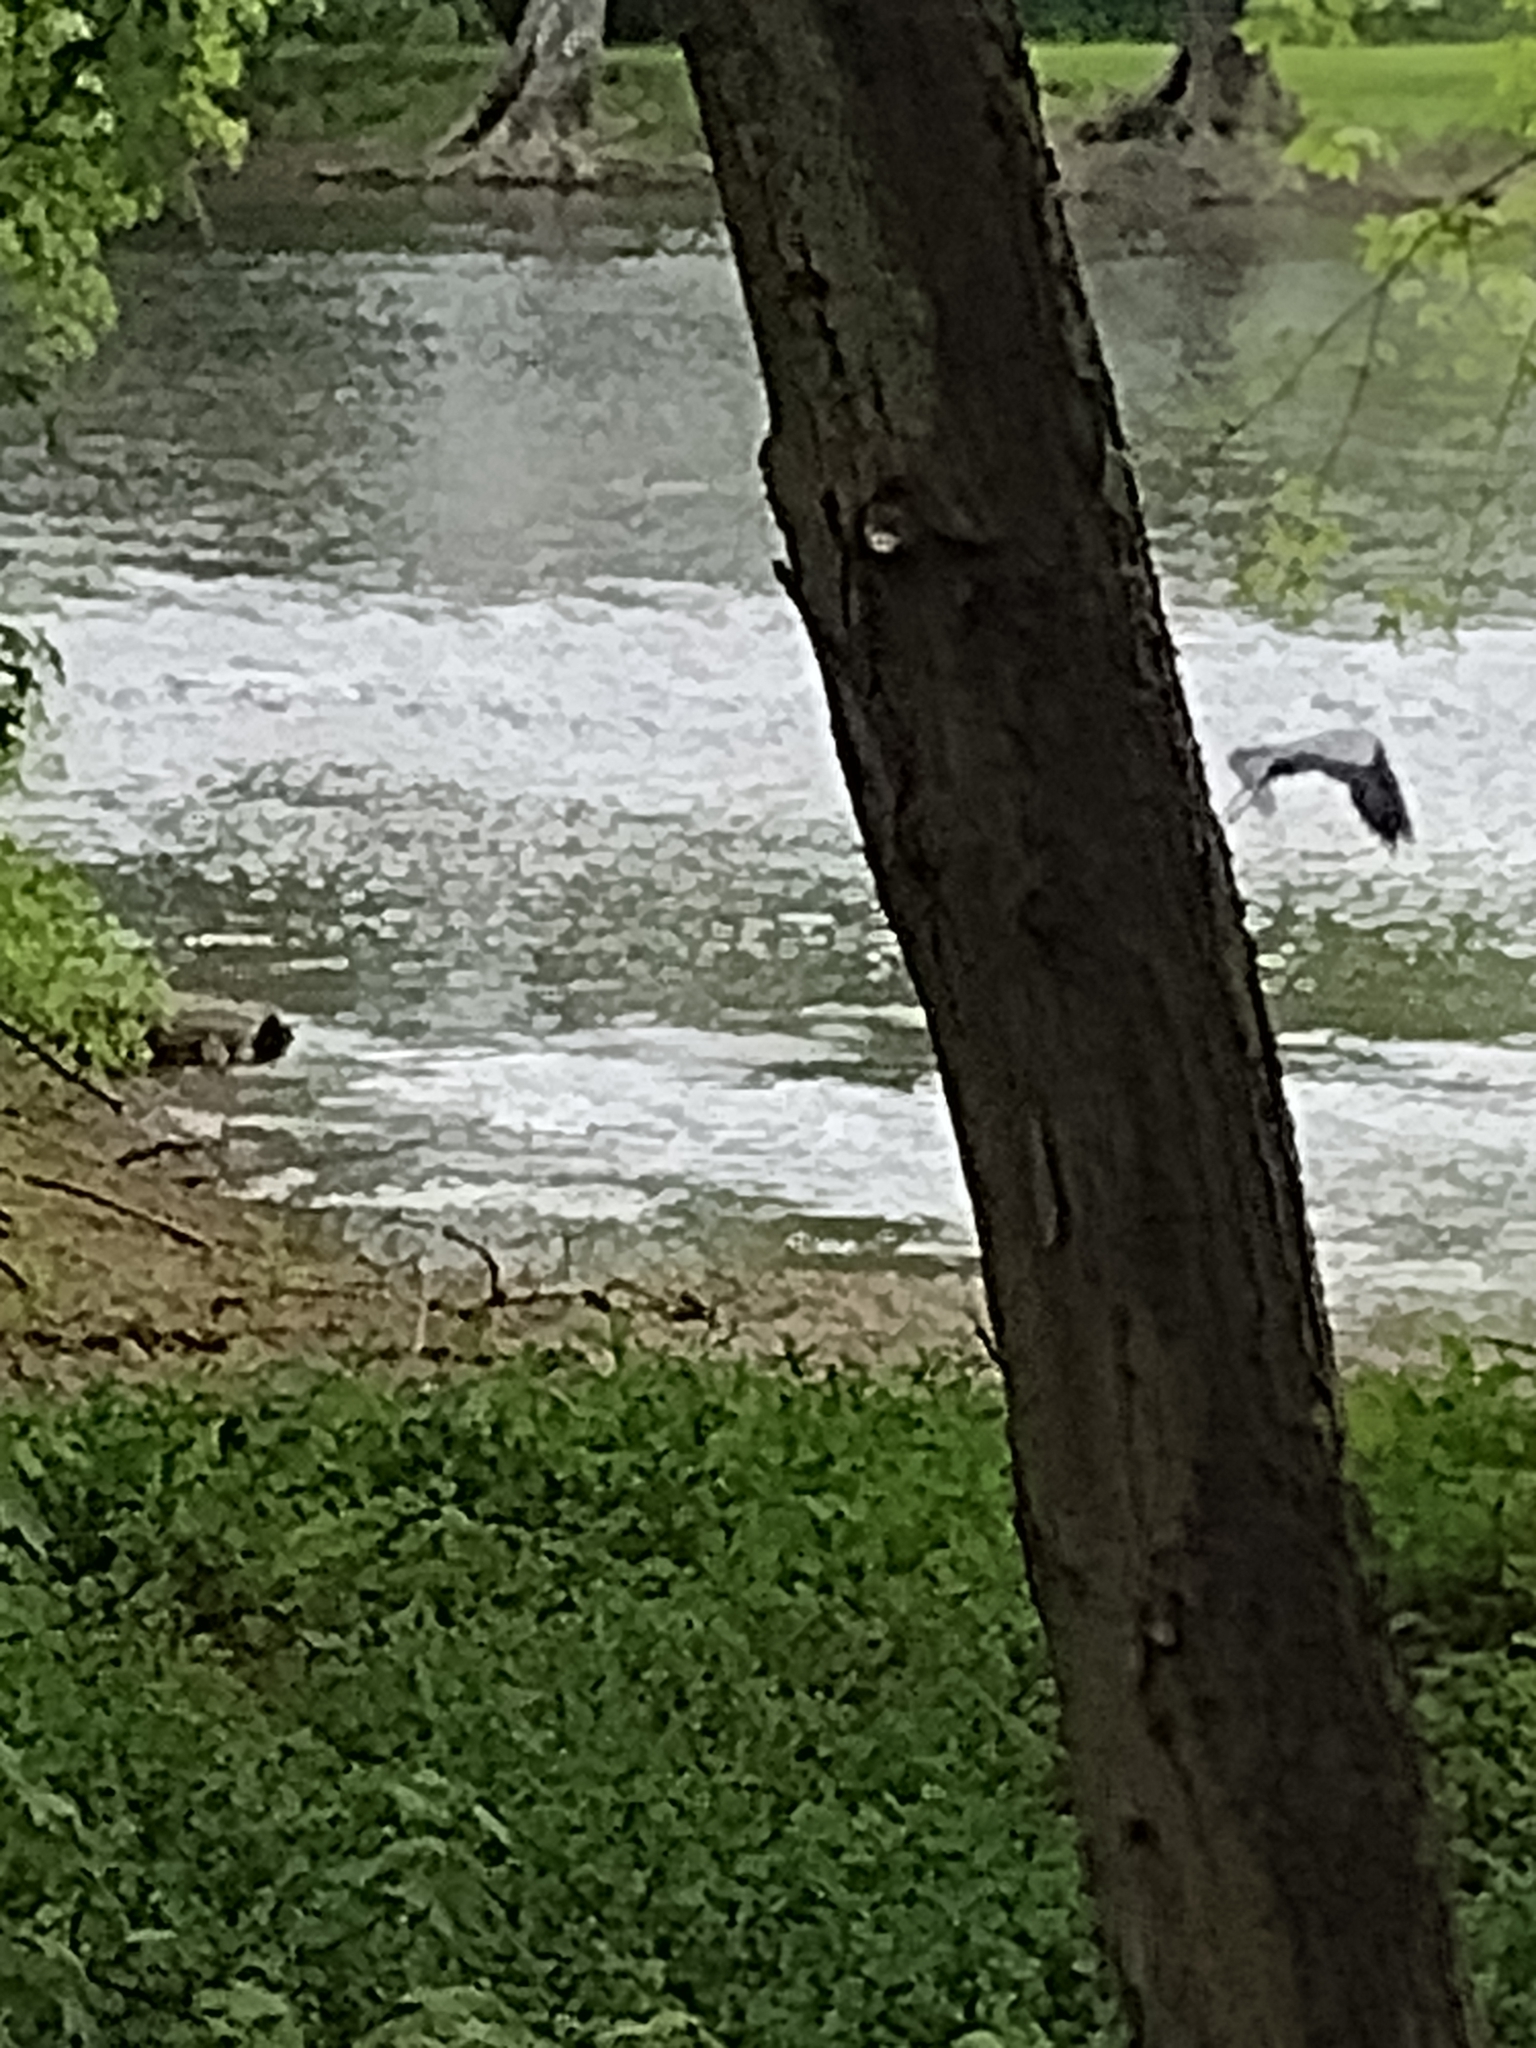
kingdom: Animalia
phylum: Chordata
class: Aves
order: Pelecaniformes
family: Ardeidae
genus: Ardea
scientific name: Ardea herodias
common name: Great blue heron
